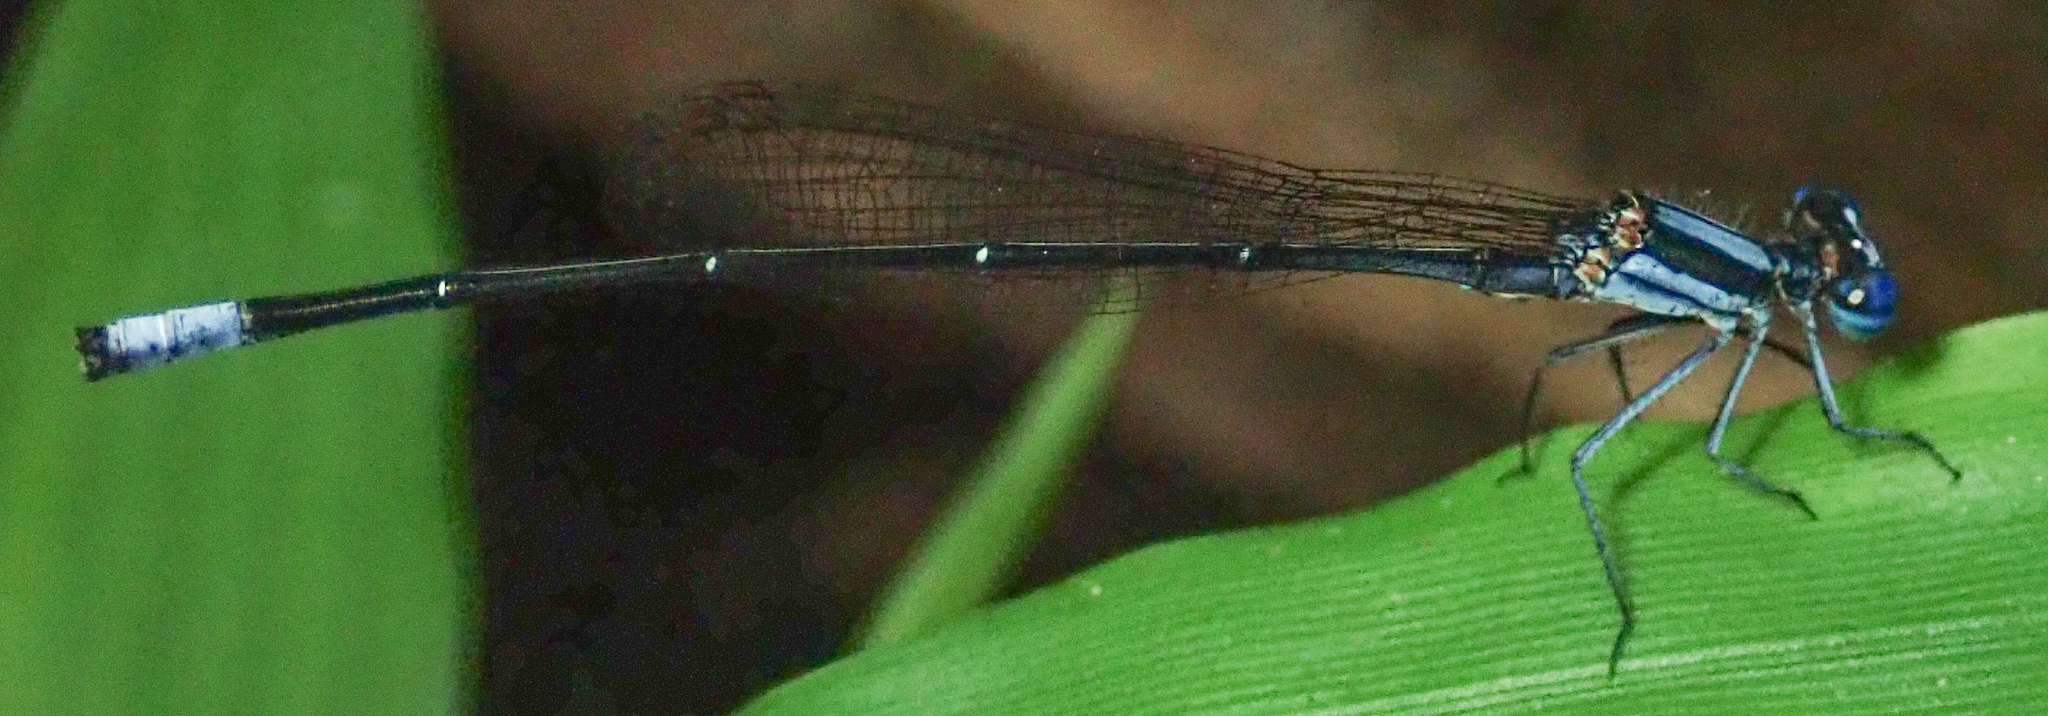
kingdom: Animalia
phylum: Arthropoda
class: Insecta
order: Odonata
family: Platycnemididae
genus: Elattoneura
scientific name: Elattoneura glauca
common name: Common threadtail
